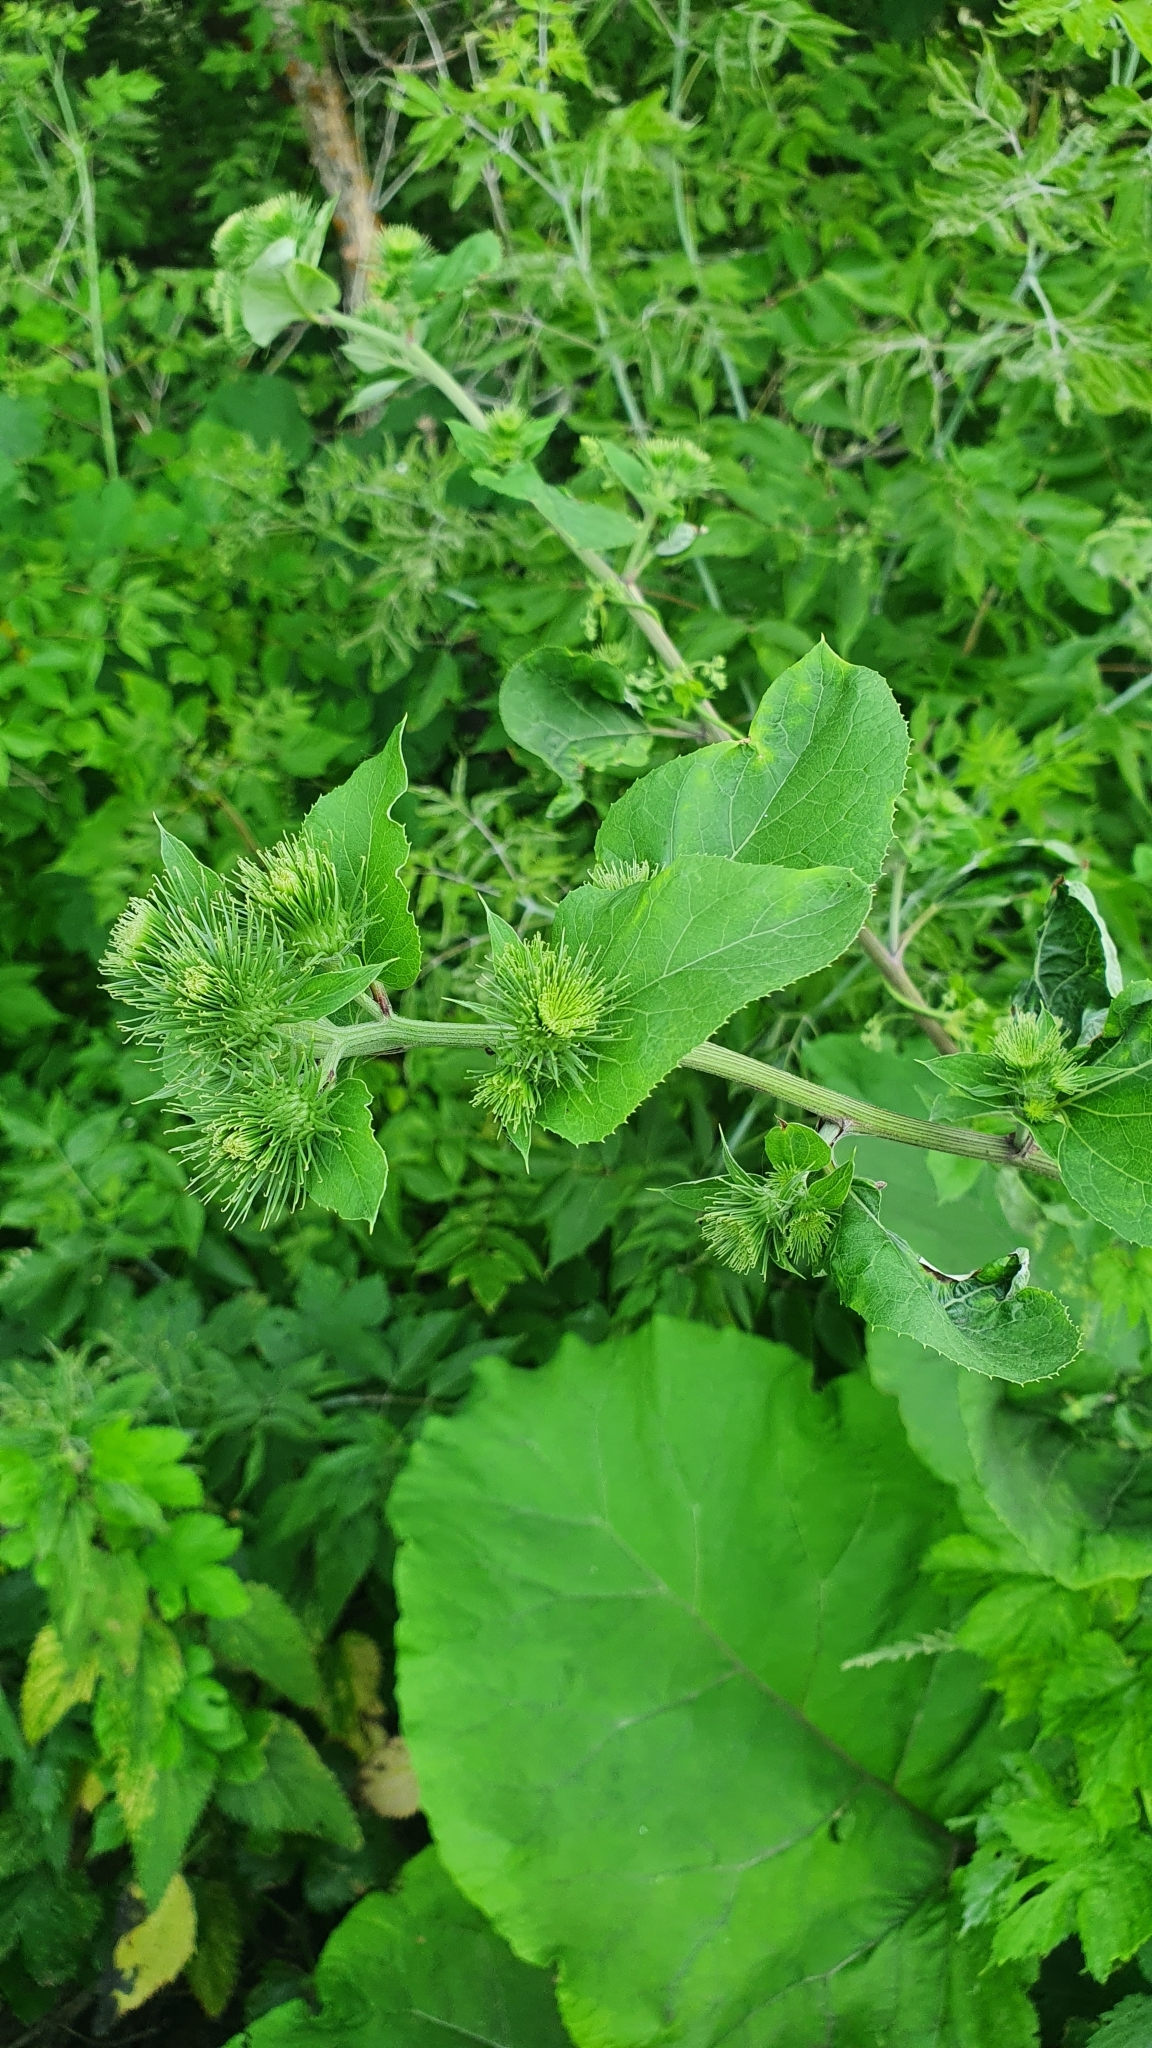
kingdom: Plantae
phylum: Tracheophyta
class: Magnoliopsida
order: Asterales
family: Asteraceae
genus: Arctium
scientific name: Arctium lappa
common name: Greater burdock
